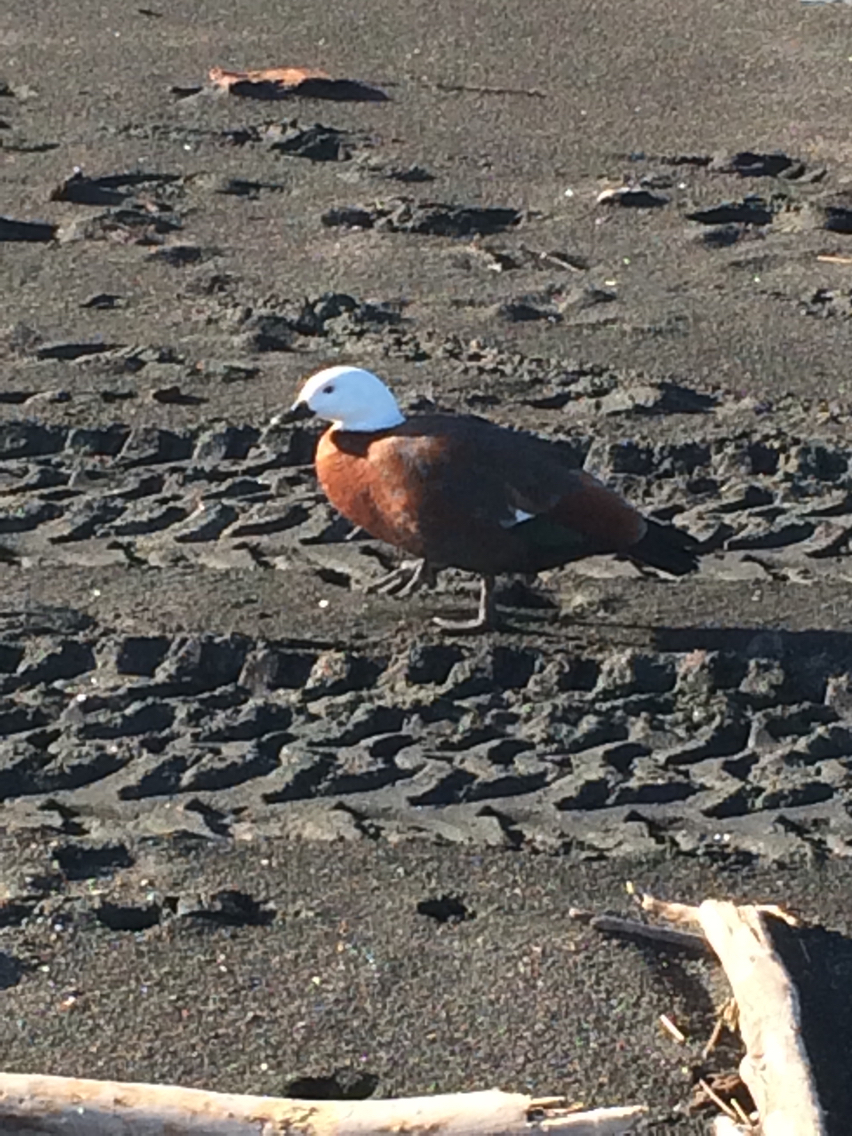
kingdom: Animalia
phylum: Chordata
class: Aves
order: Anseriformes
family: Anatidae
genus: Tadorna
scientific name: Tadorna variegata
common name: Paradise shelduck
